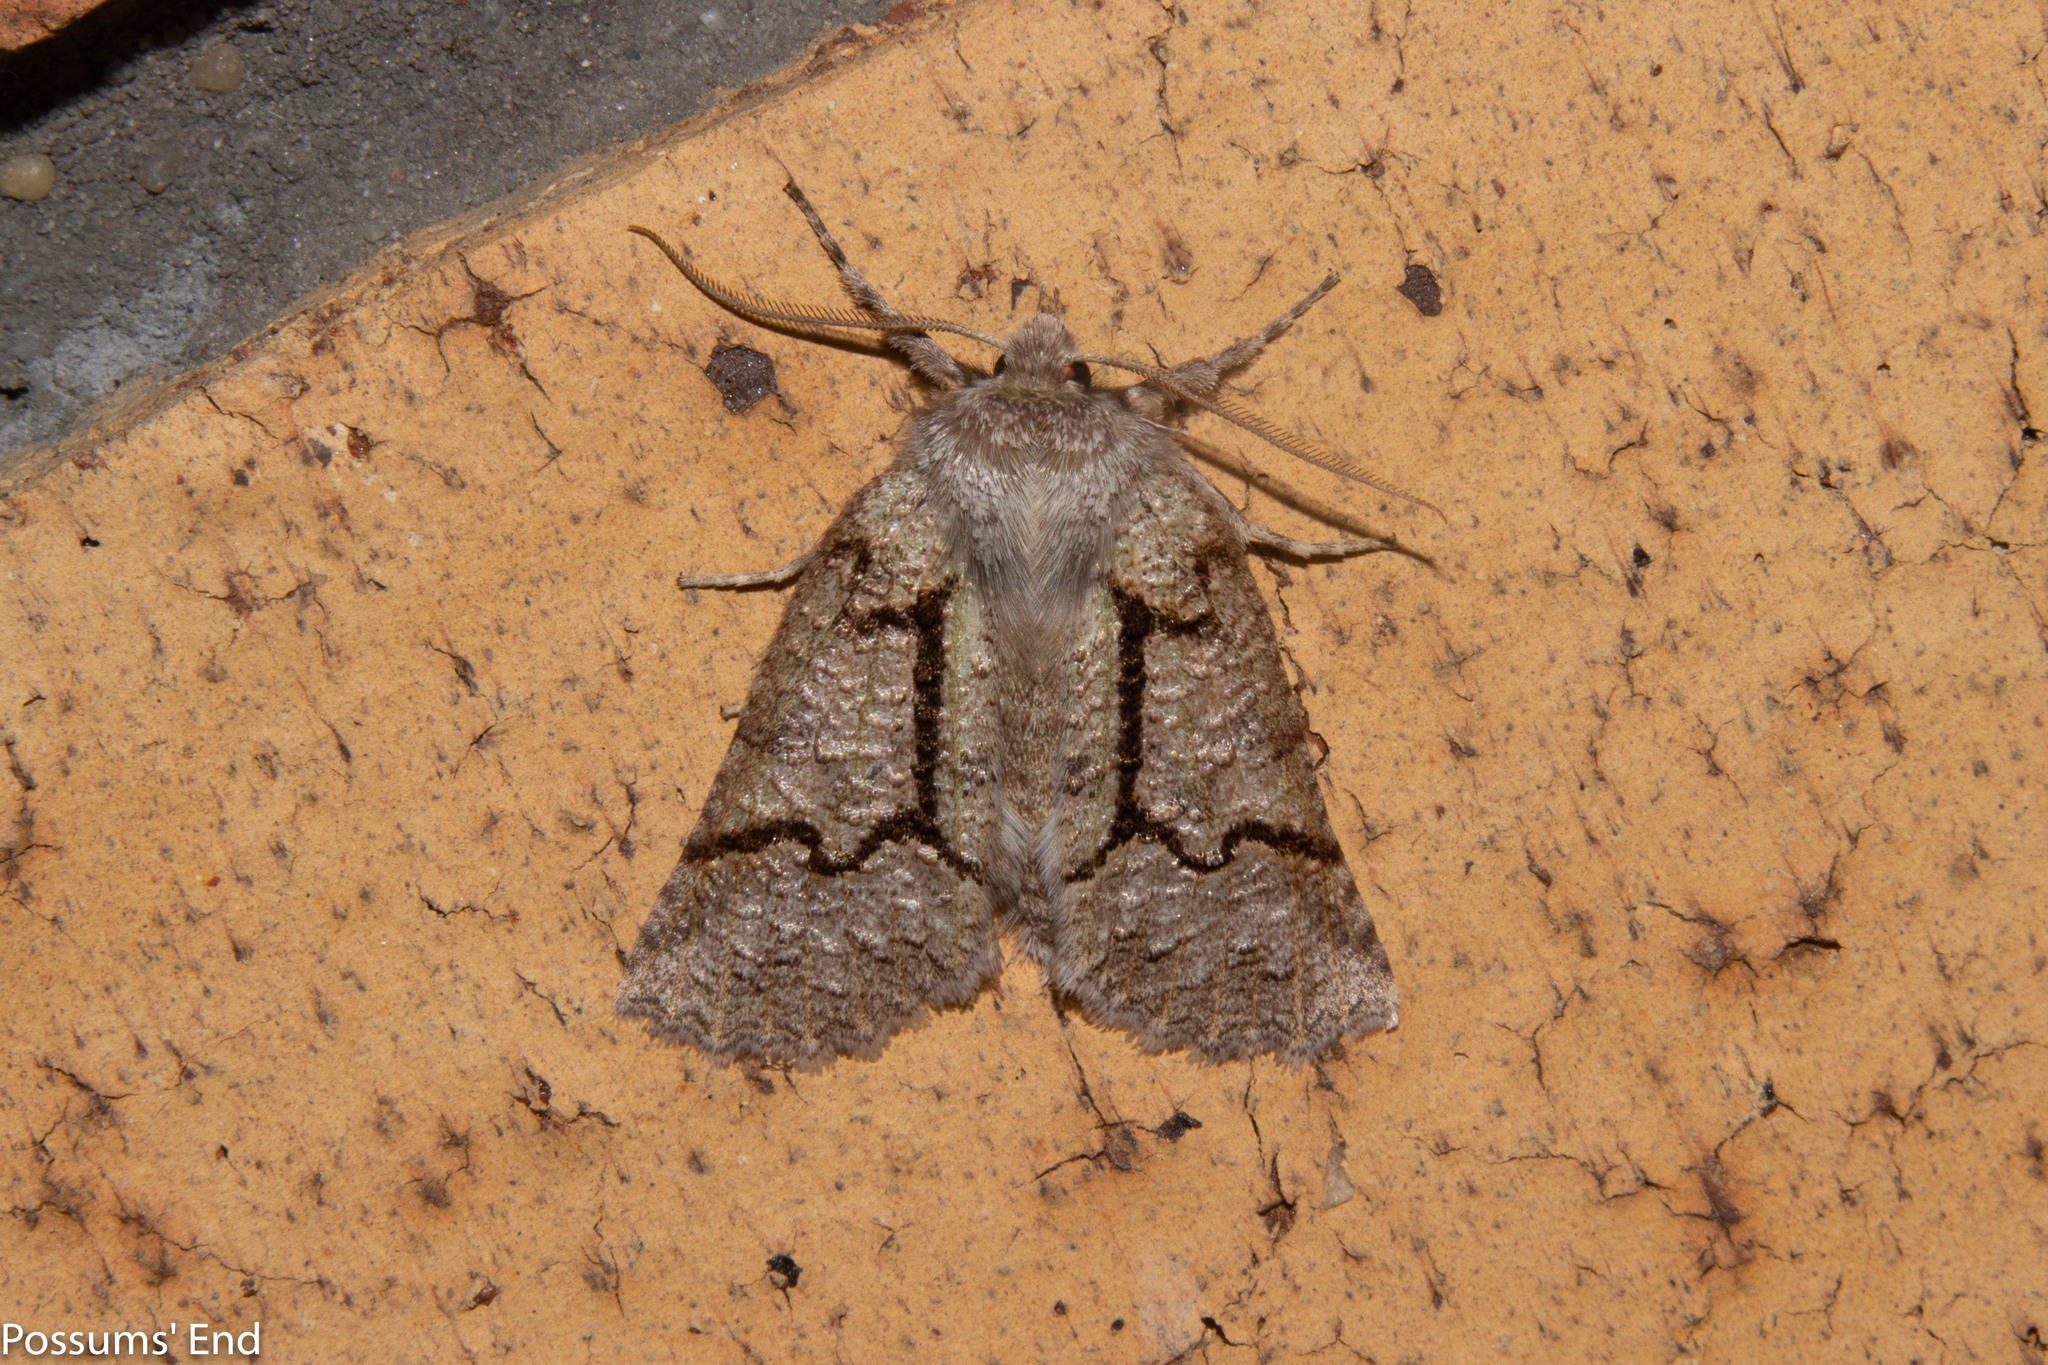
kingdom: Animalia
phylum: Arthropoda
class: Insecta
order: Lepidoptera
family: Geometridae
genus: Declana
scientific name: Declana floccosa
